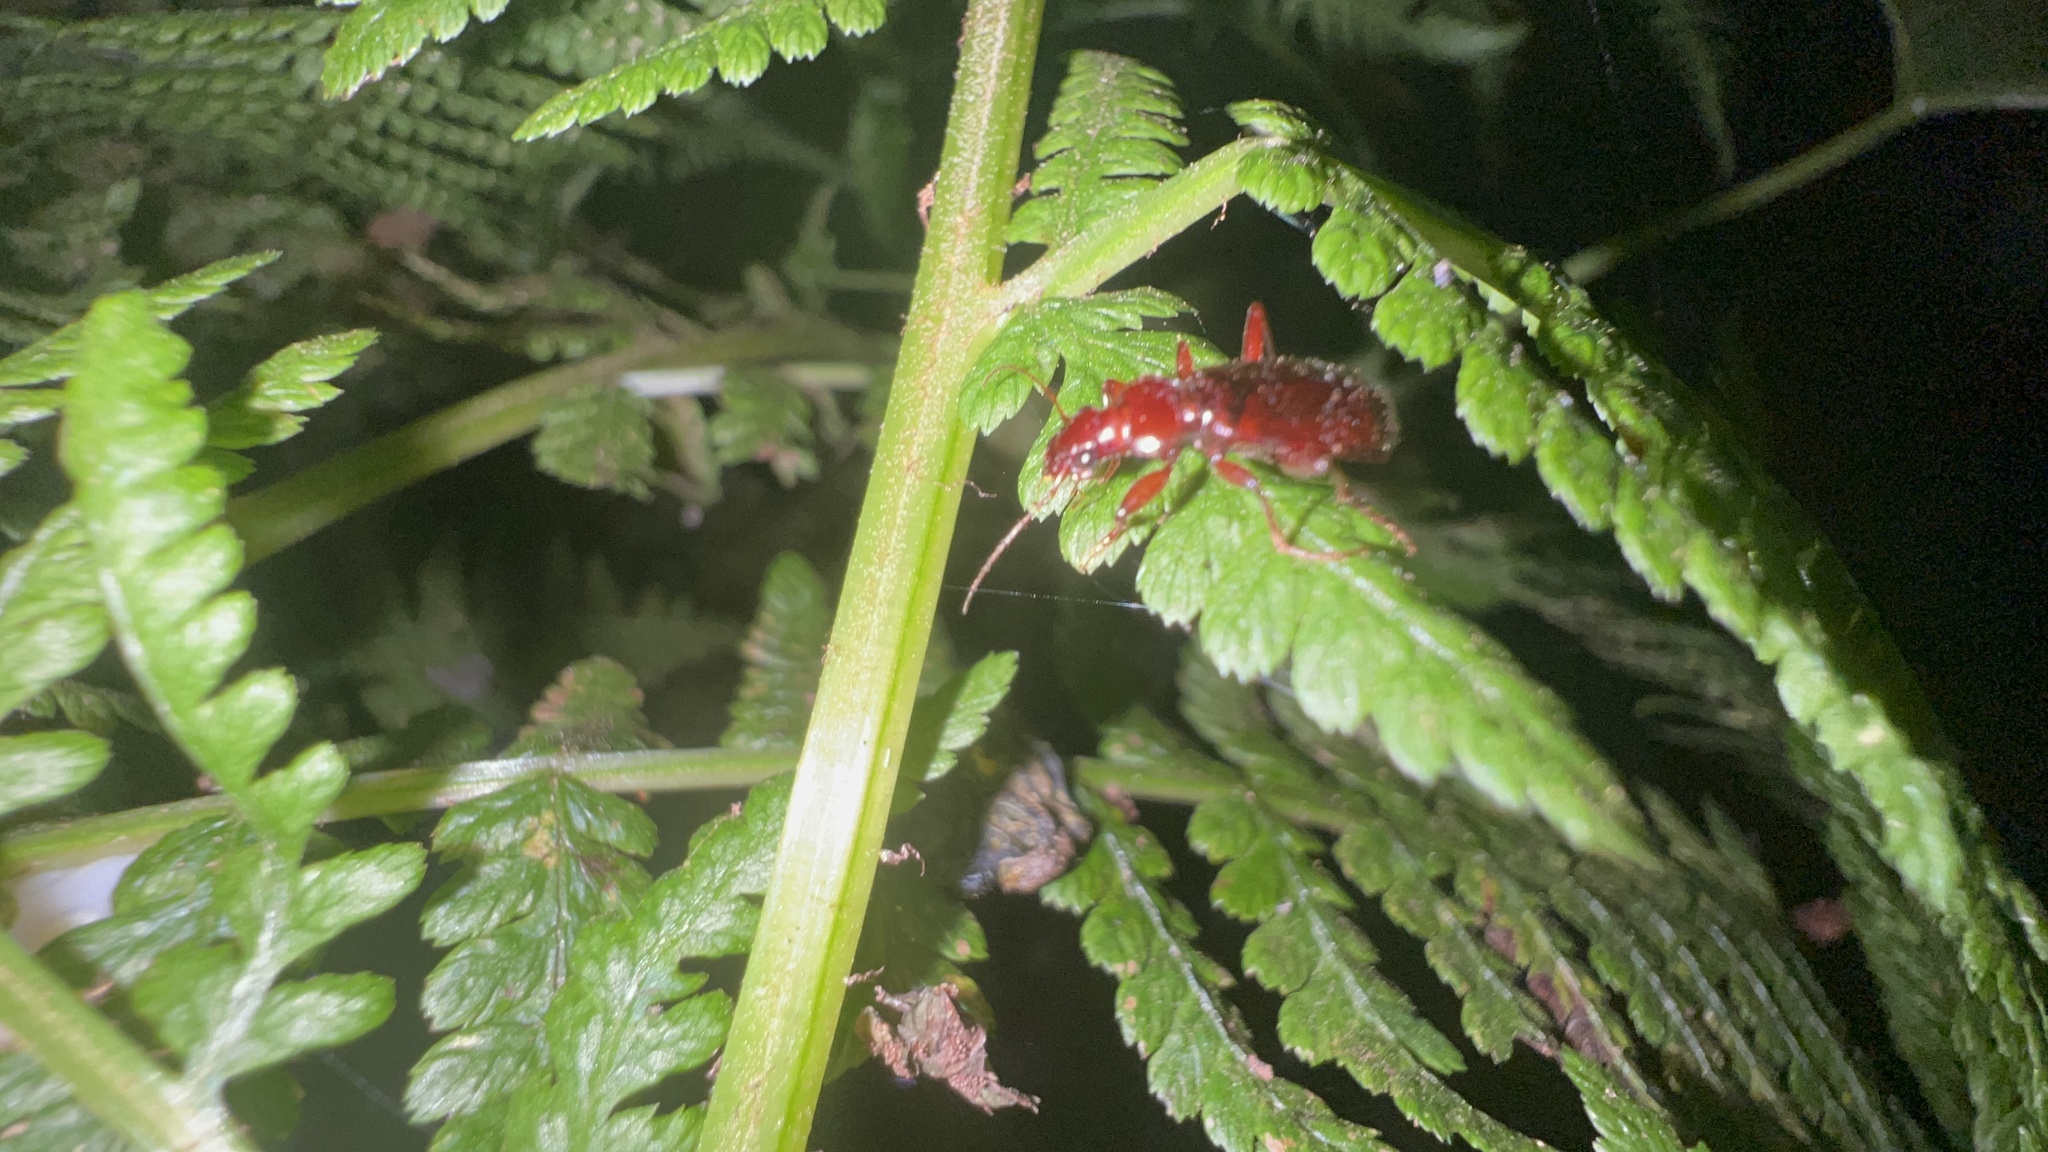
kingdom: Animalia
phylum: Arthropoda
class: Insecta
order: Coleoptera
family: Carabidae
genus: Leistus
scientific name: Leistus ferruginosus
